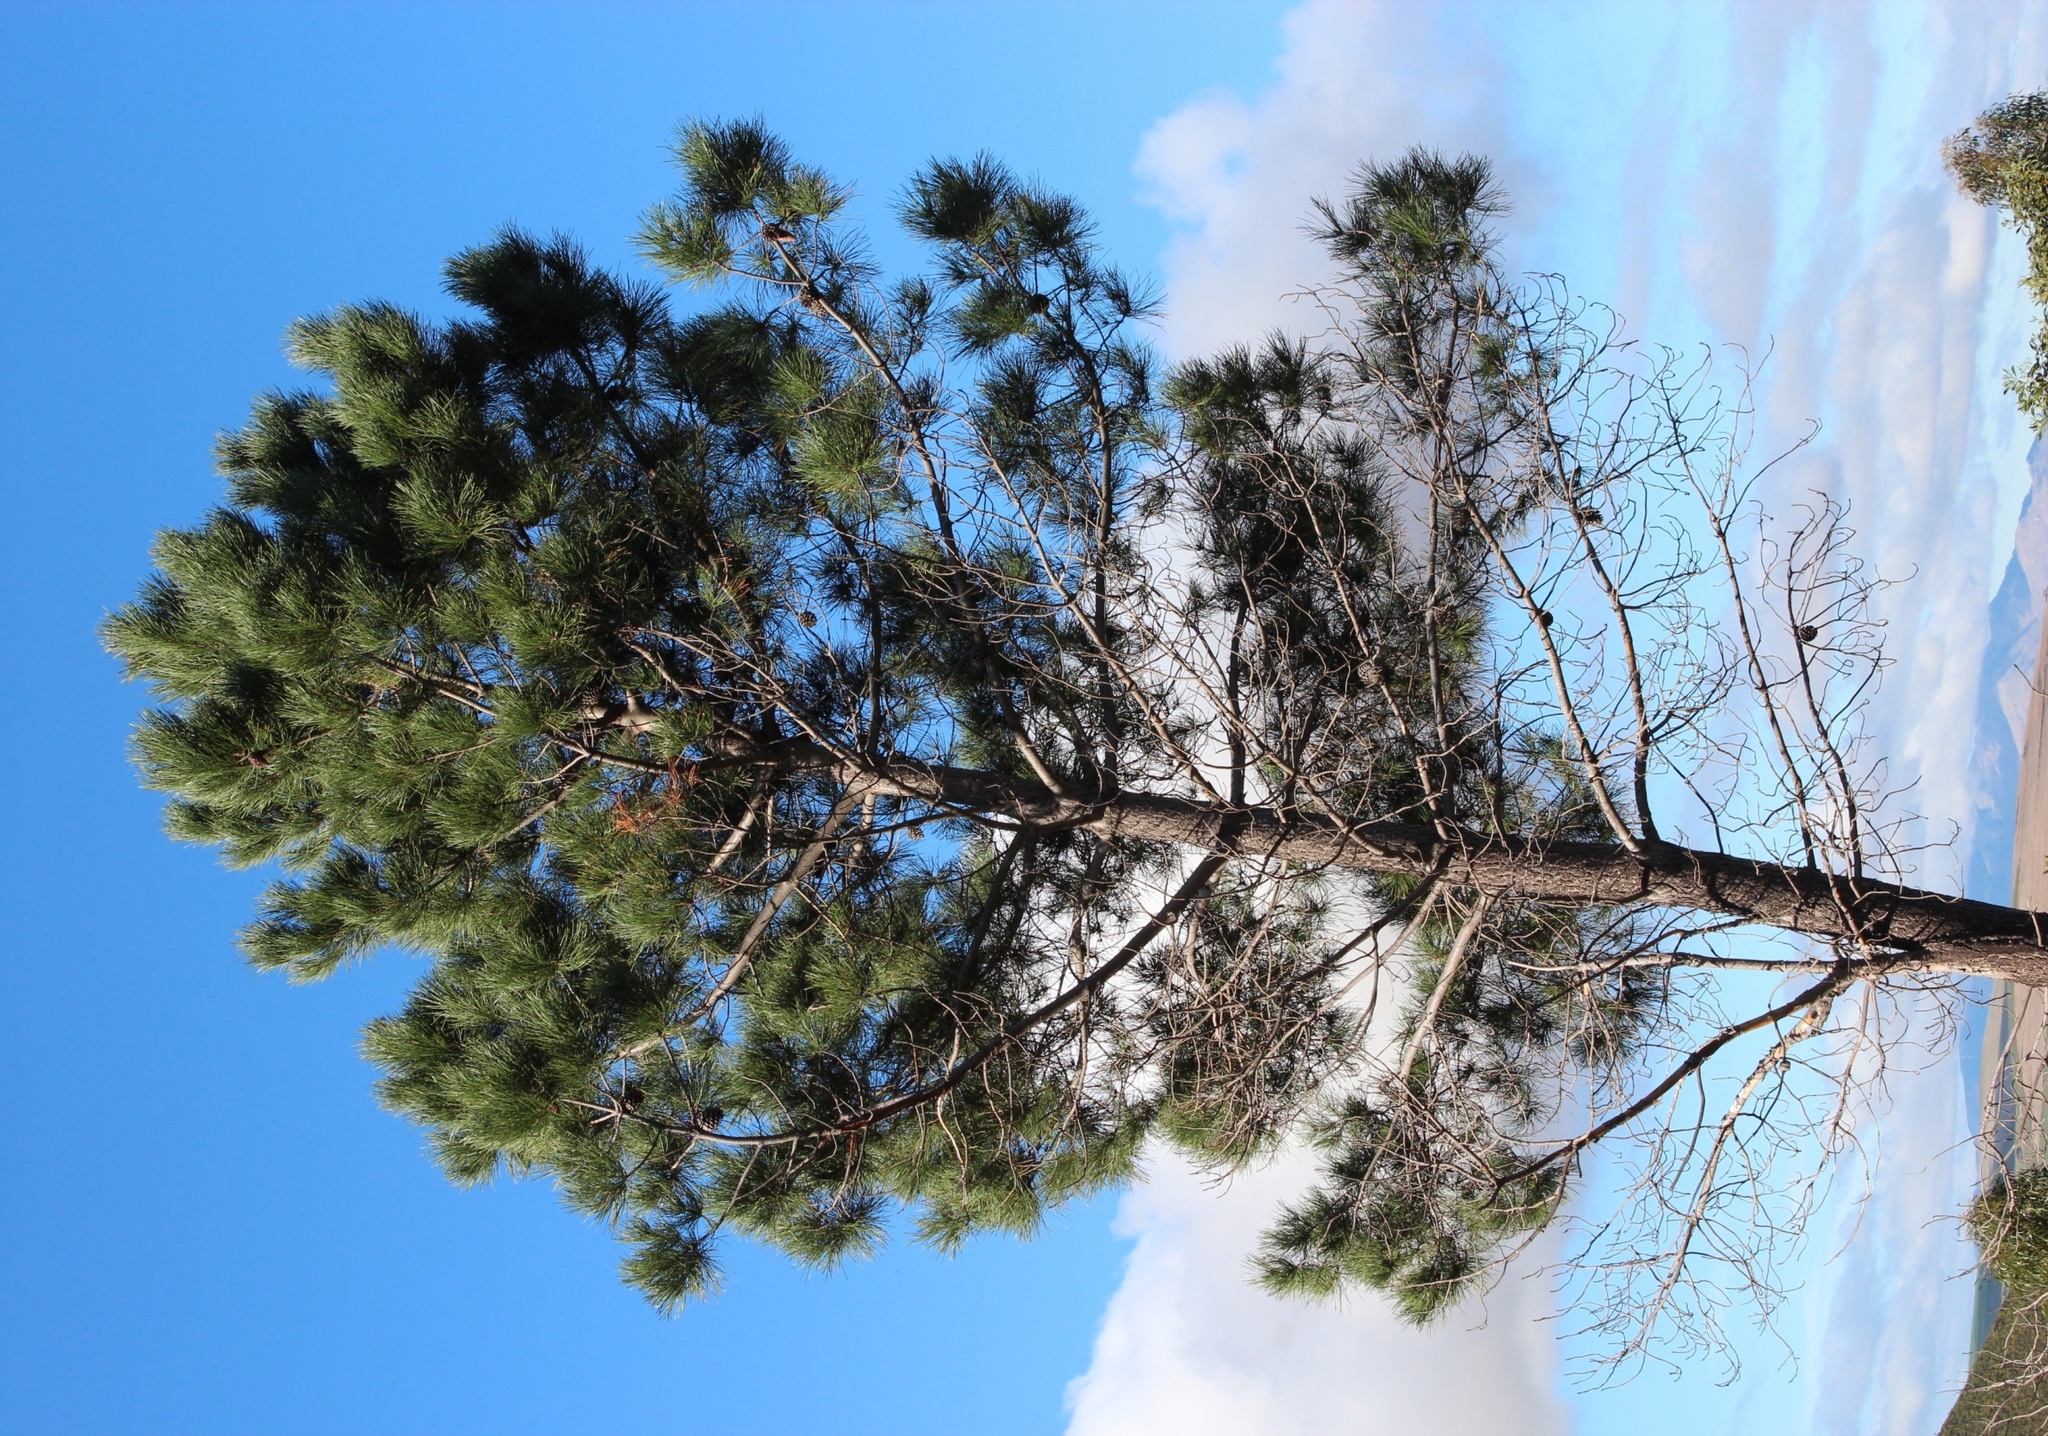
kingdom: Plantae
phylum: Tracheophyta
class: Pinopsida
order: Pinales
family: Pinaceae
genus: Pinus
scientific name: Pinus pinaster
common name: Maritime pine
